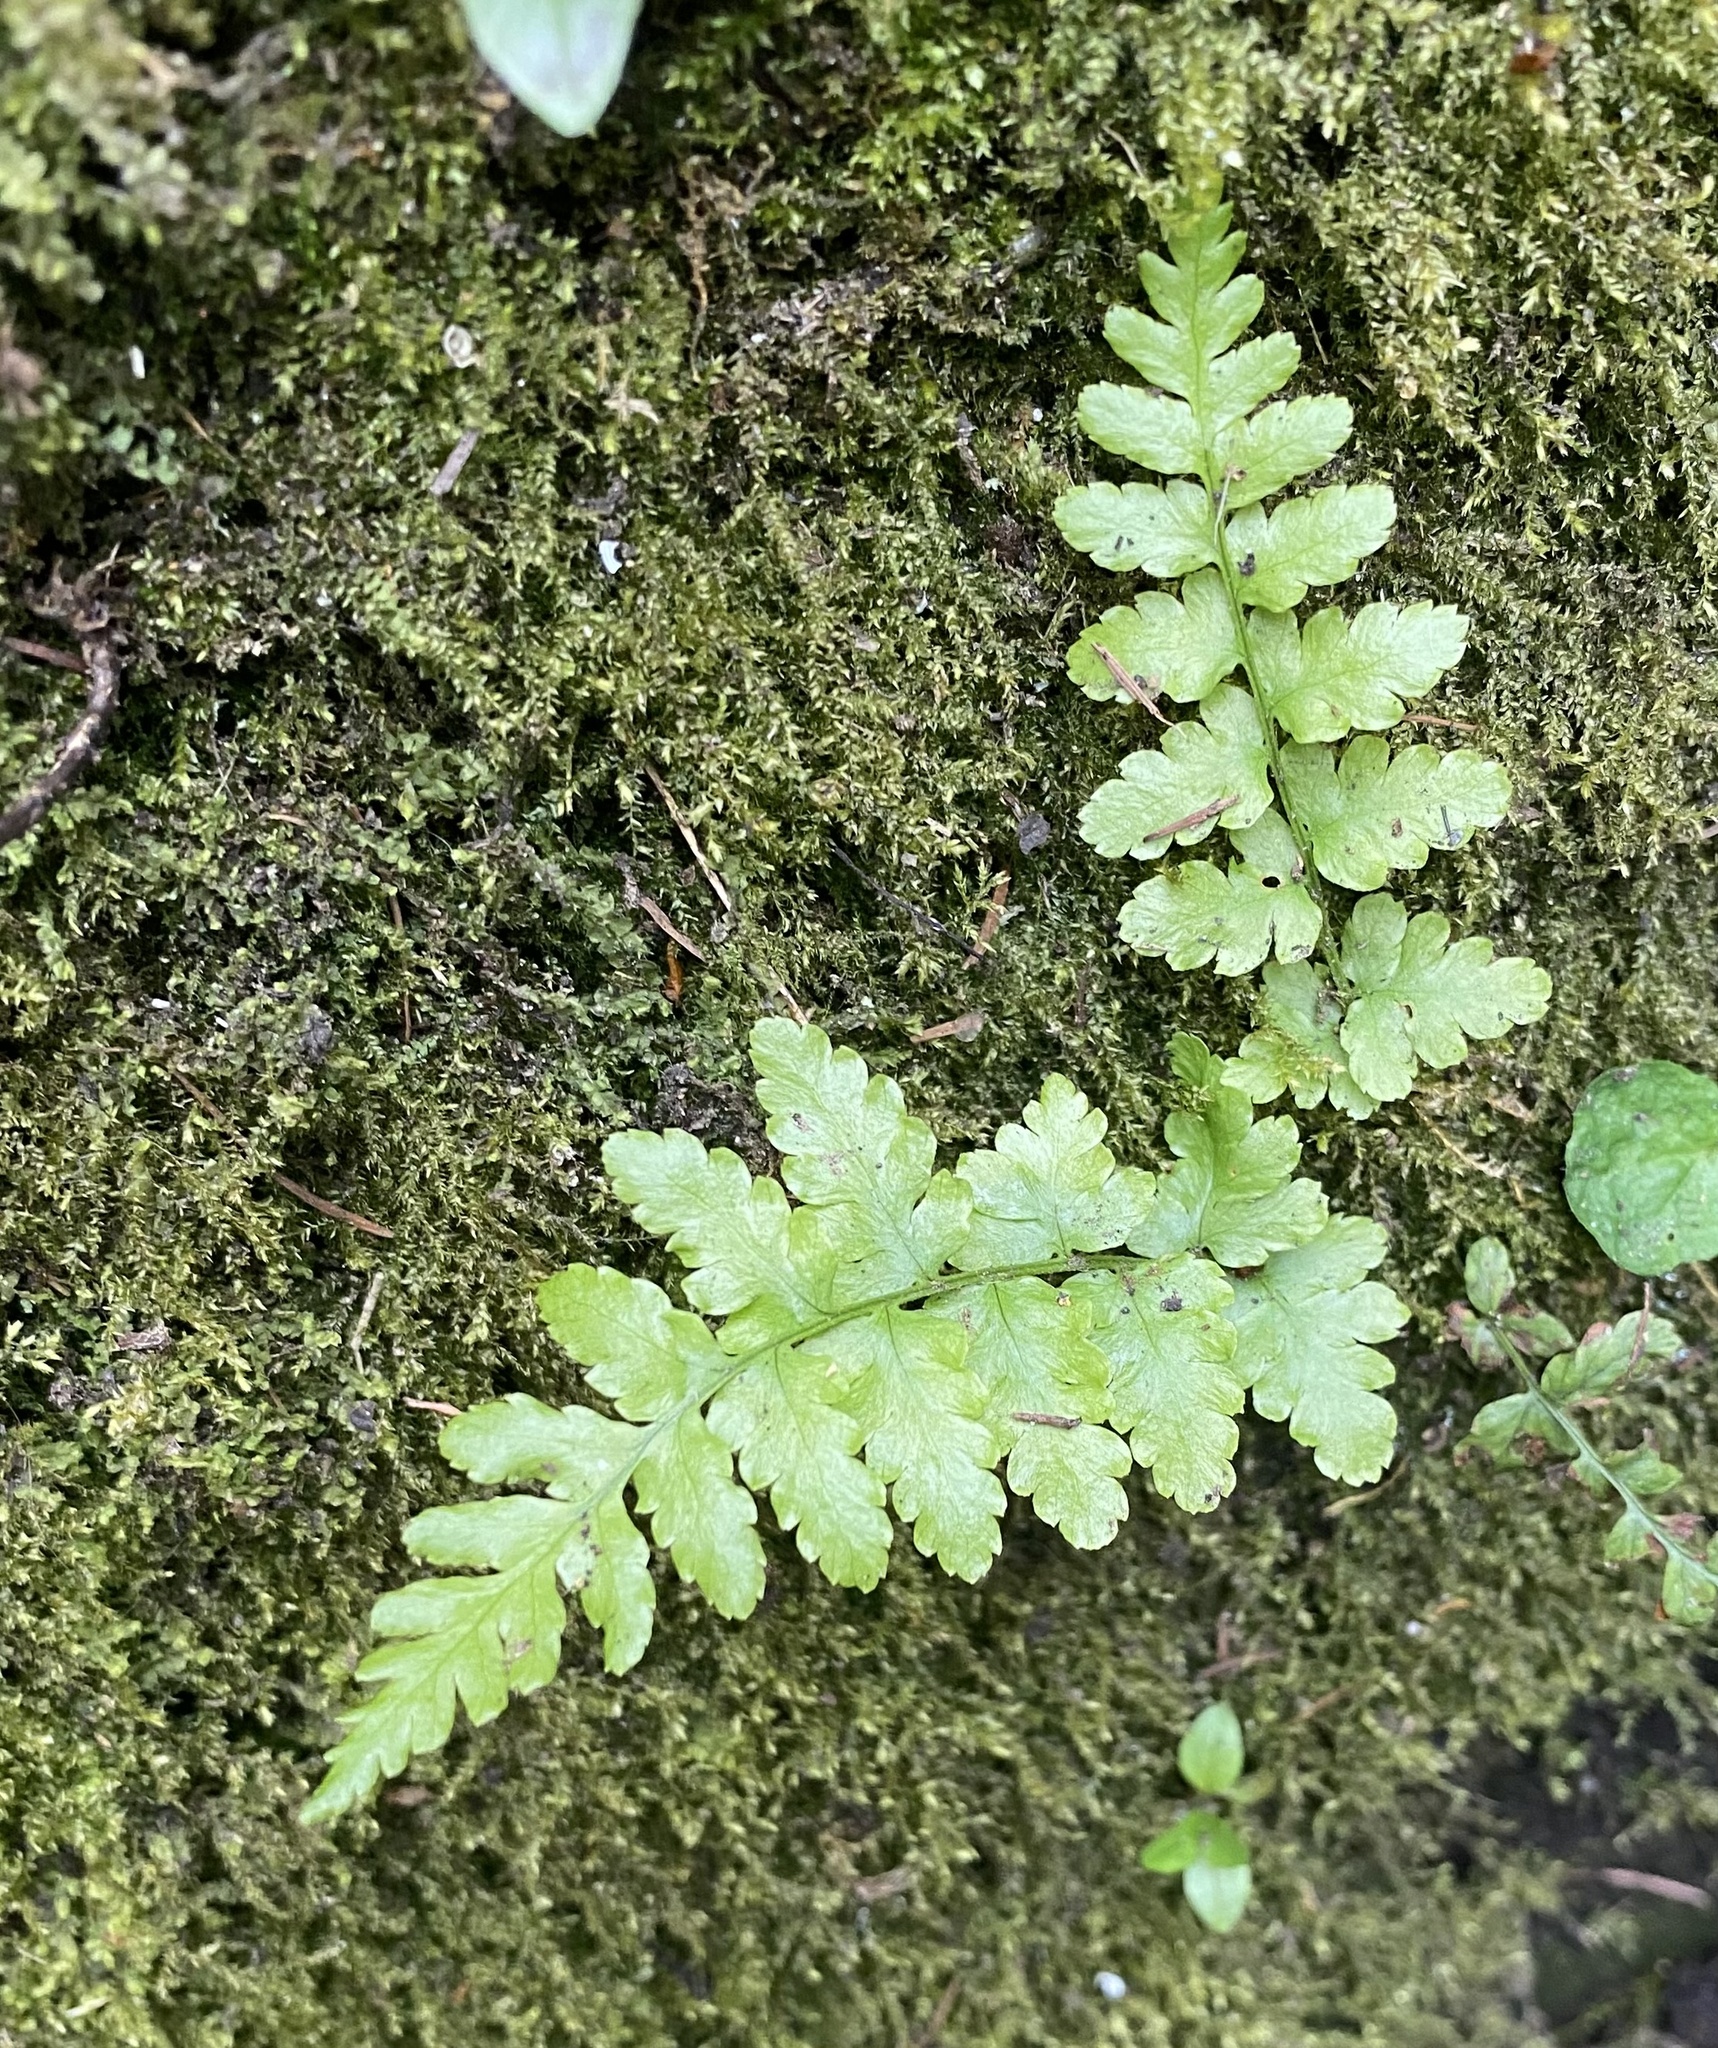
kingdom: Plantae
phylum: Tracheophyta
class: Polypodiopsida
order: Polypodiales
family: Dryopteridaceae
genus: Dryopteris
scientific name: Dryopteris filix-mas
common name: Male fern
